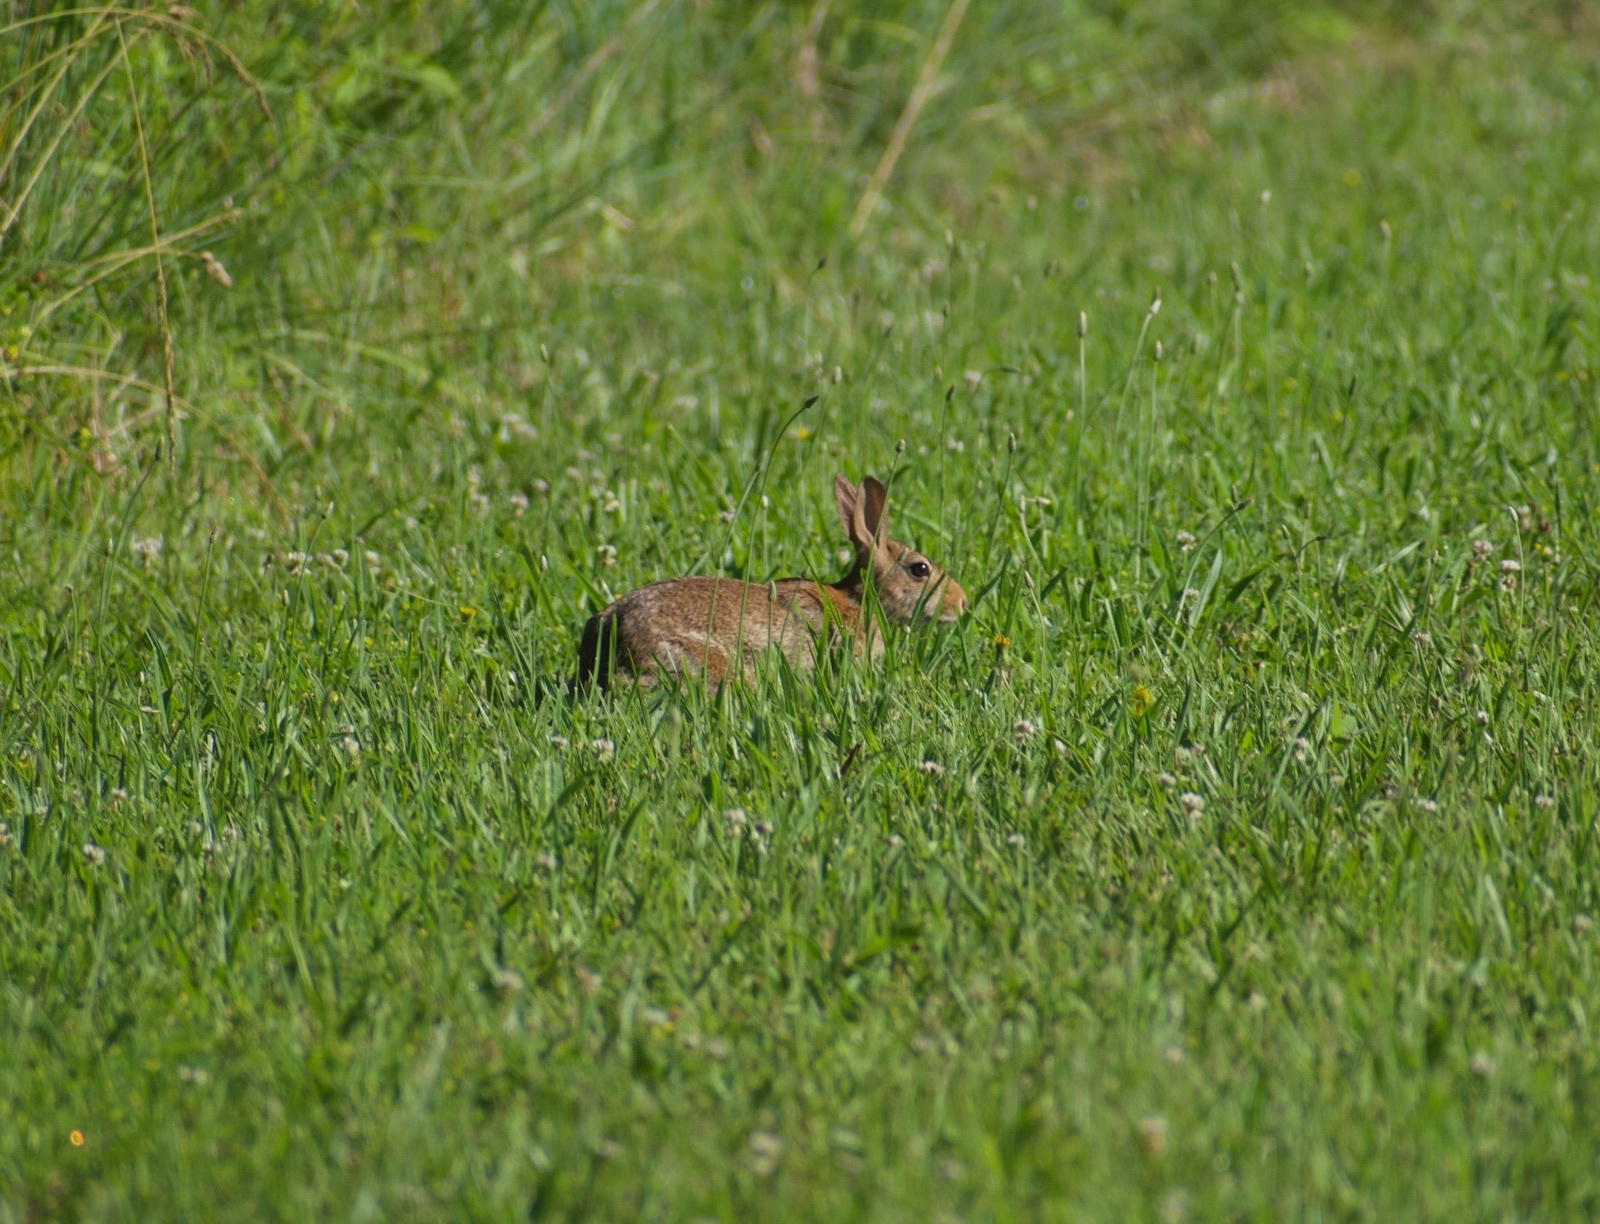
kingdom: Animalia
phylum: Chordata
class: Mammalia
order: Lagomorpha
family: Leporidae
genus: Sylvilagus
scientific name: Sylvilagus floridanus
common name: Eastern cottontail
